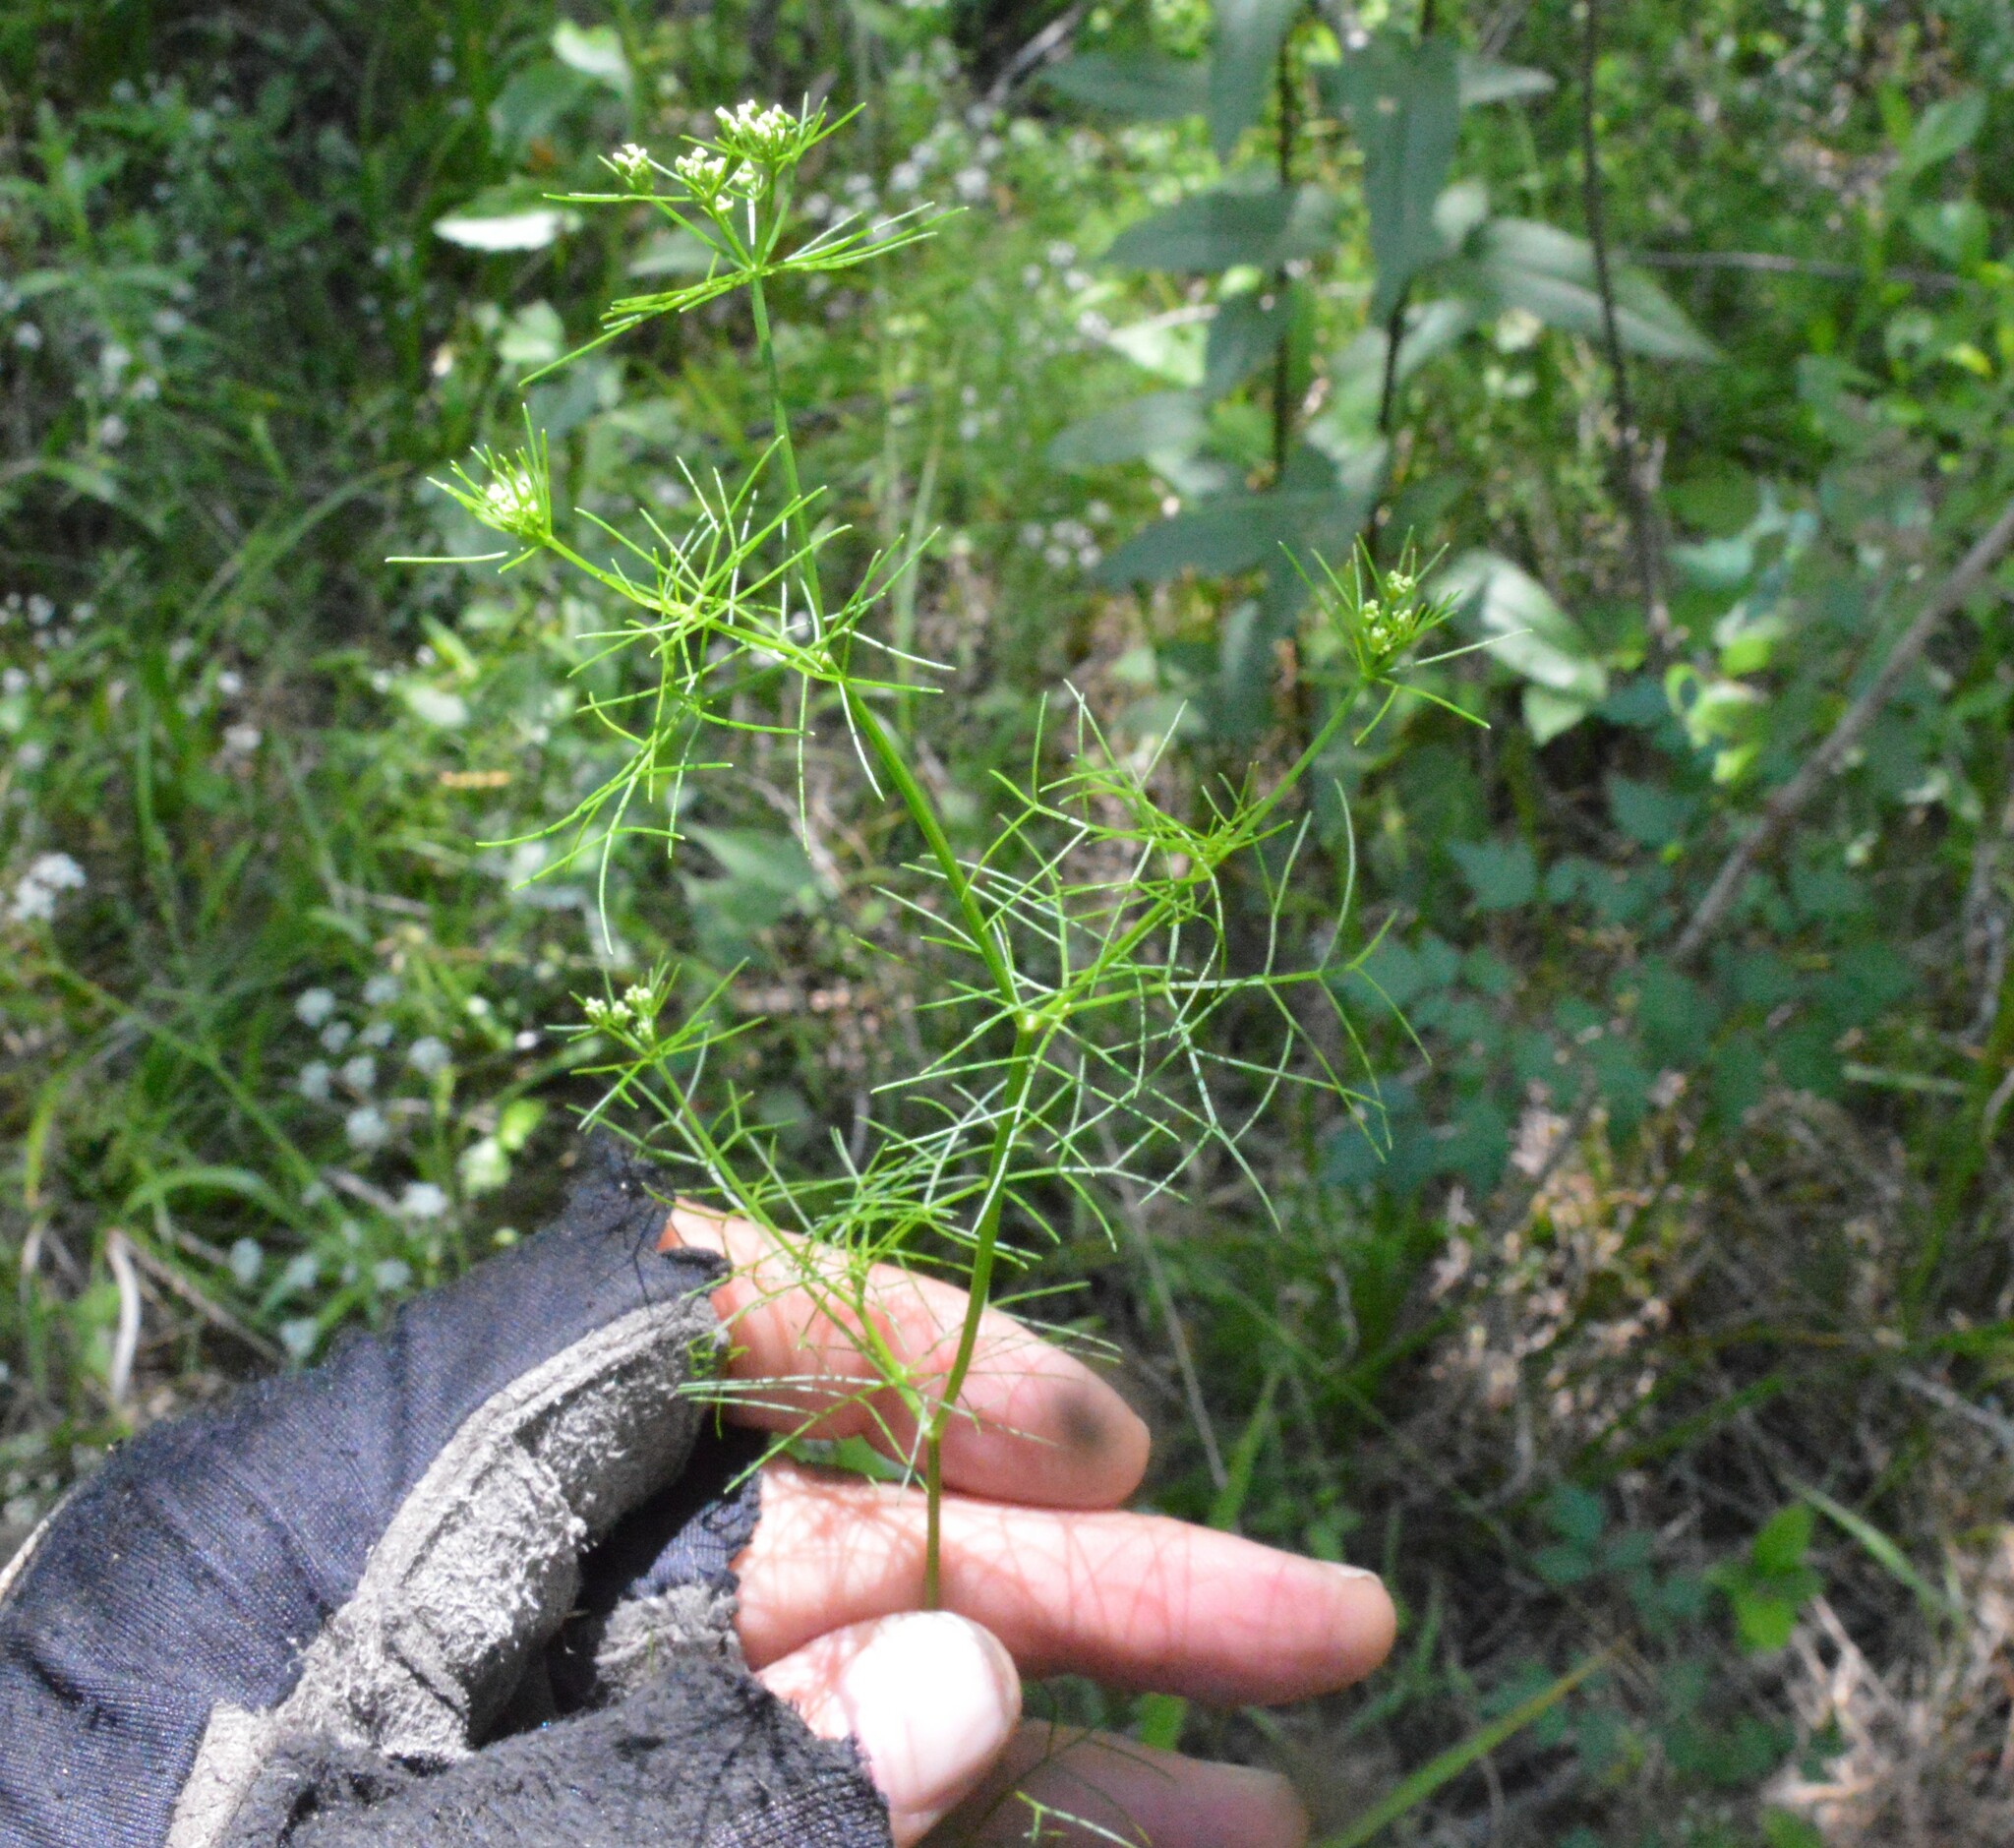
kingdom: Plantae
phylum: Tracheophyta
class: Magnoliopsida
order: Apiales
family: Apiaceae
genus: Ptilimnium
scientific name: Ptilimnium capillaceum
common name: Herbwilliam
